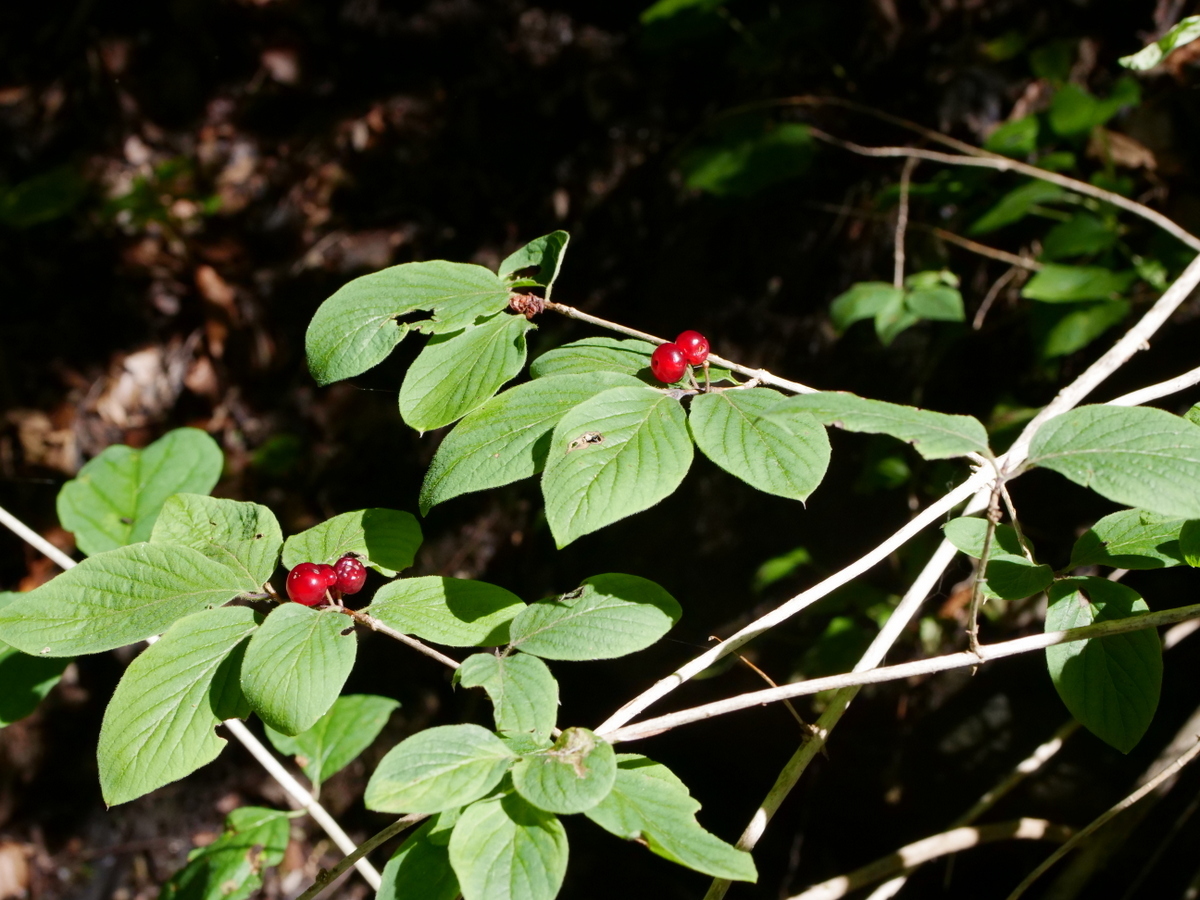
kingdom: Plantae
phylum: Tracheophyta
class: Magnoliopsida
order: Dipsacales
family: Caprifoliaceae
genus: Lonicera
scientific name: Lonicera xylosteum
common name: Fly honeysuckle
